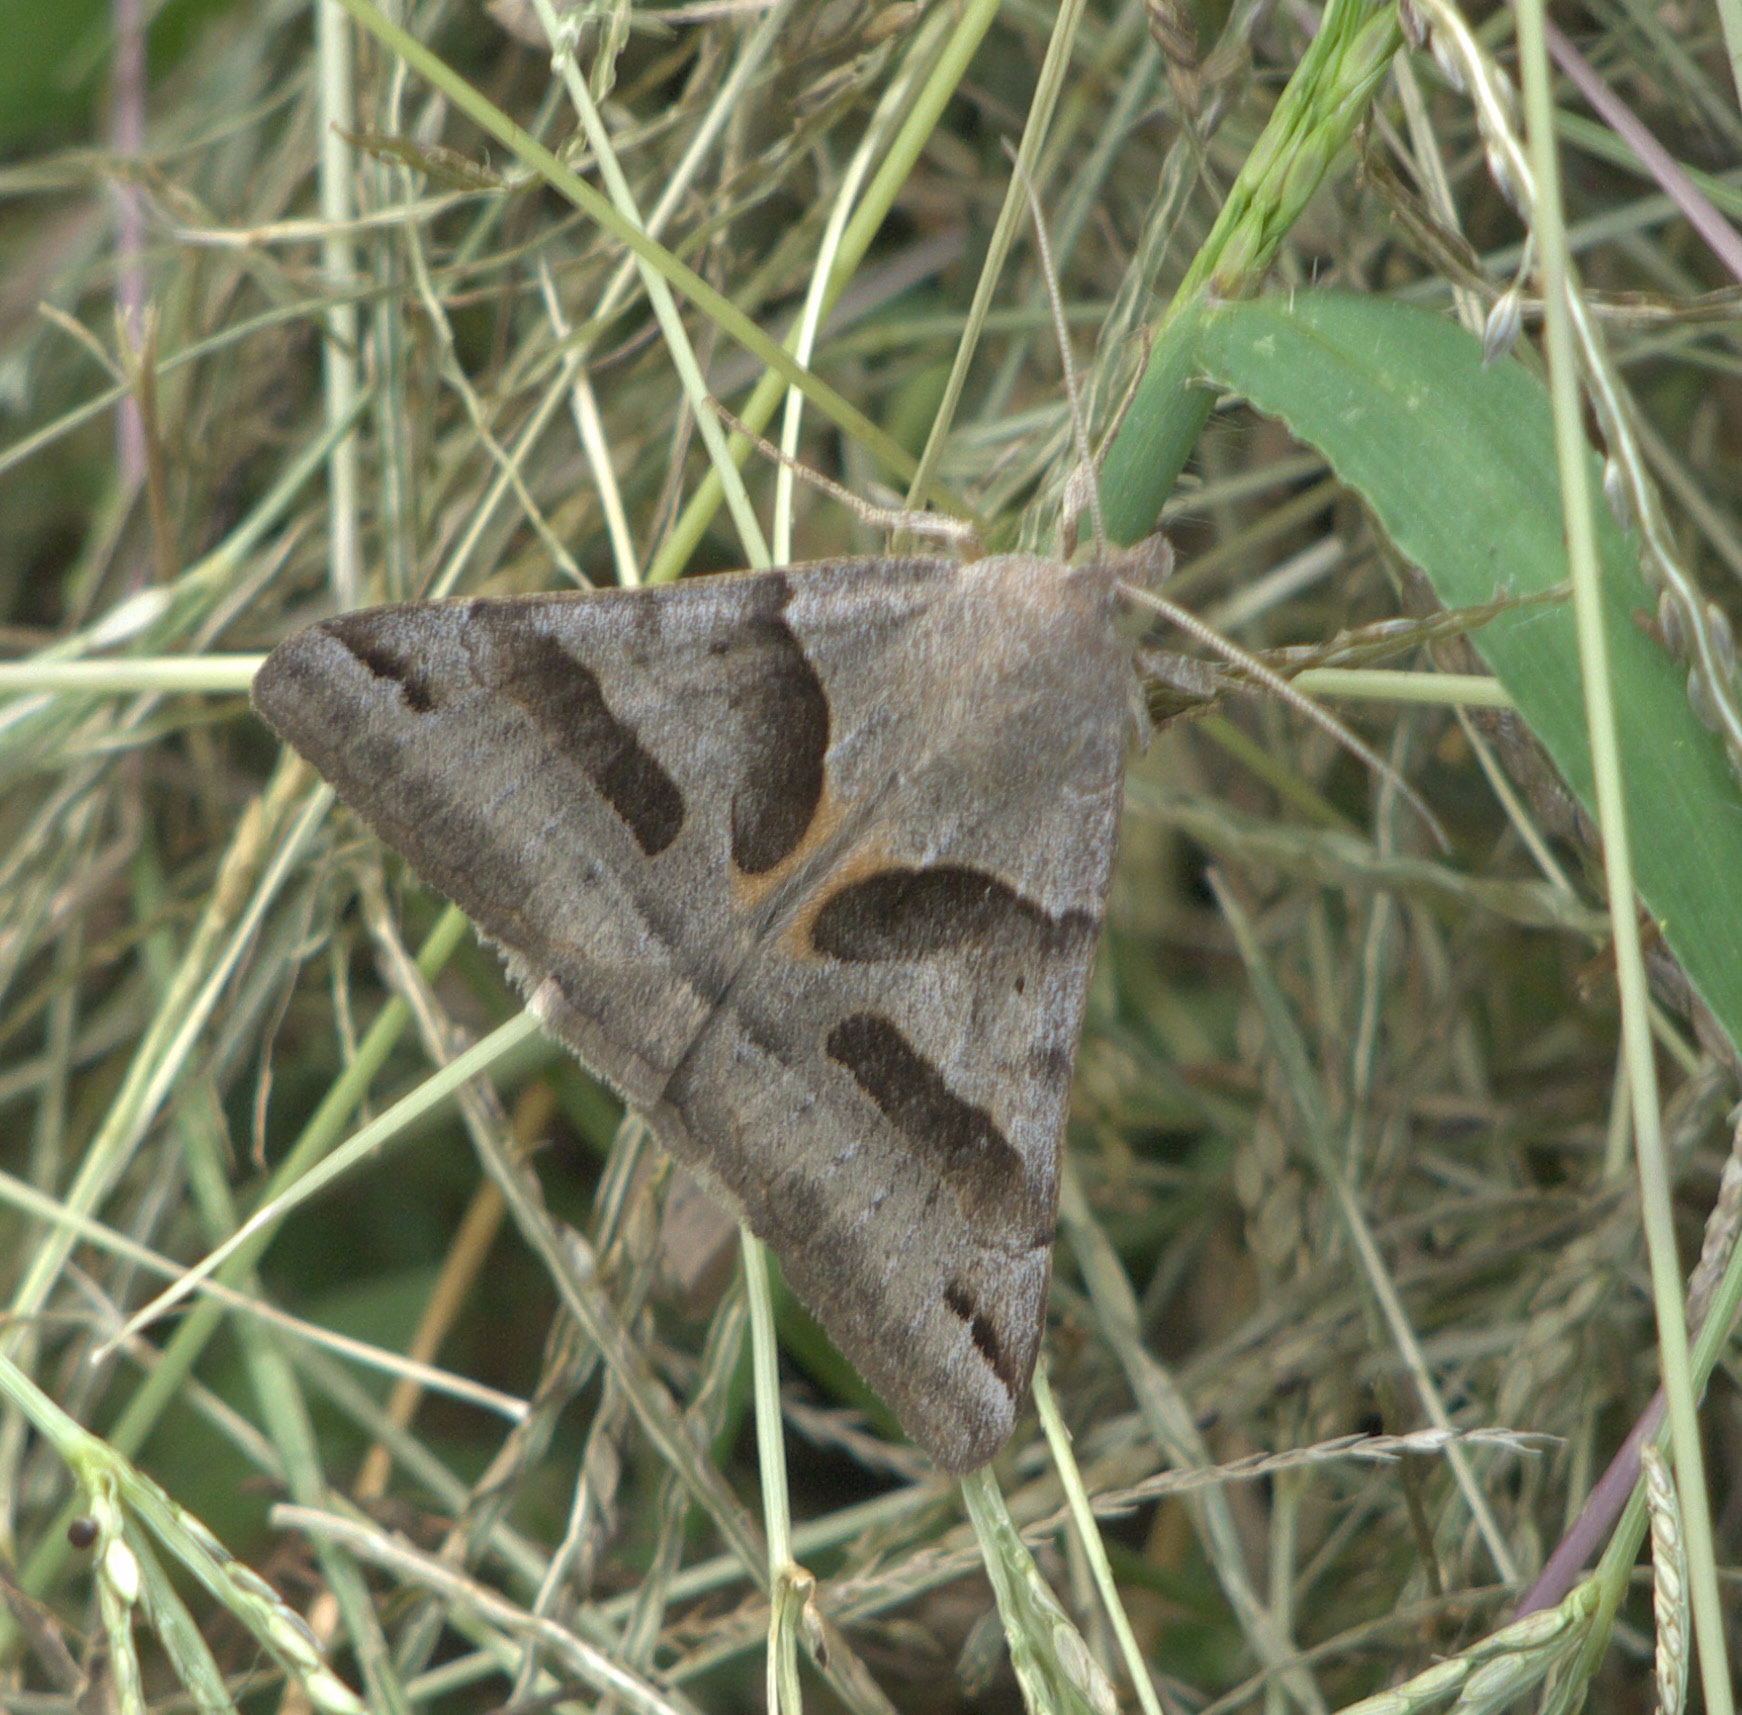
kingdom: Animalia
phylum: Arthropoda
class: Insecta
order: Lepidoptera
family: Erebidae
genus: Caenurgina
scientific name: Caenurgina erechtea
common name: Forage looper moth
